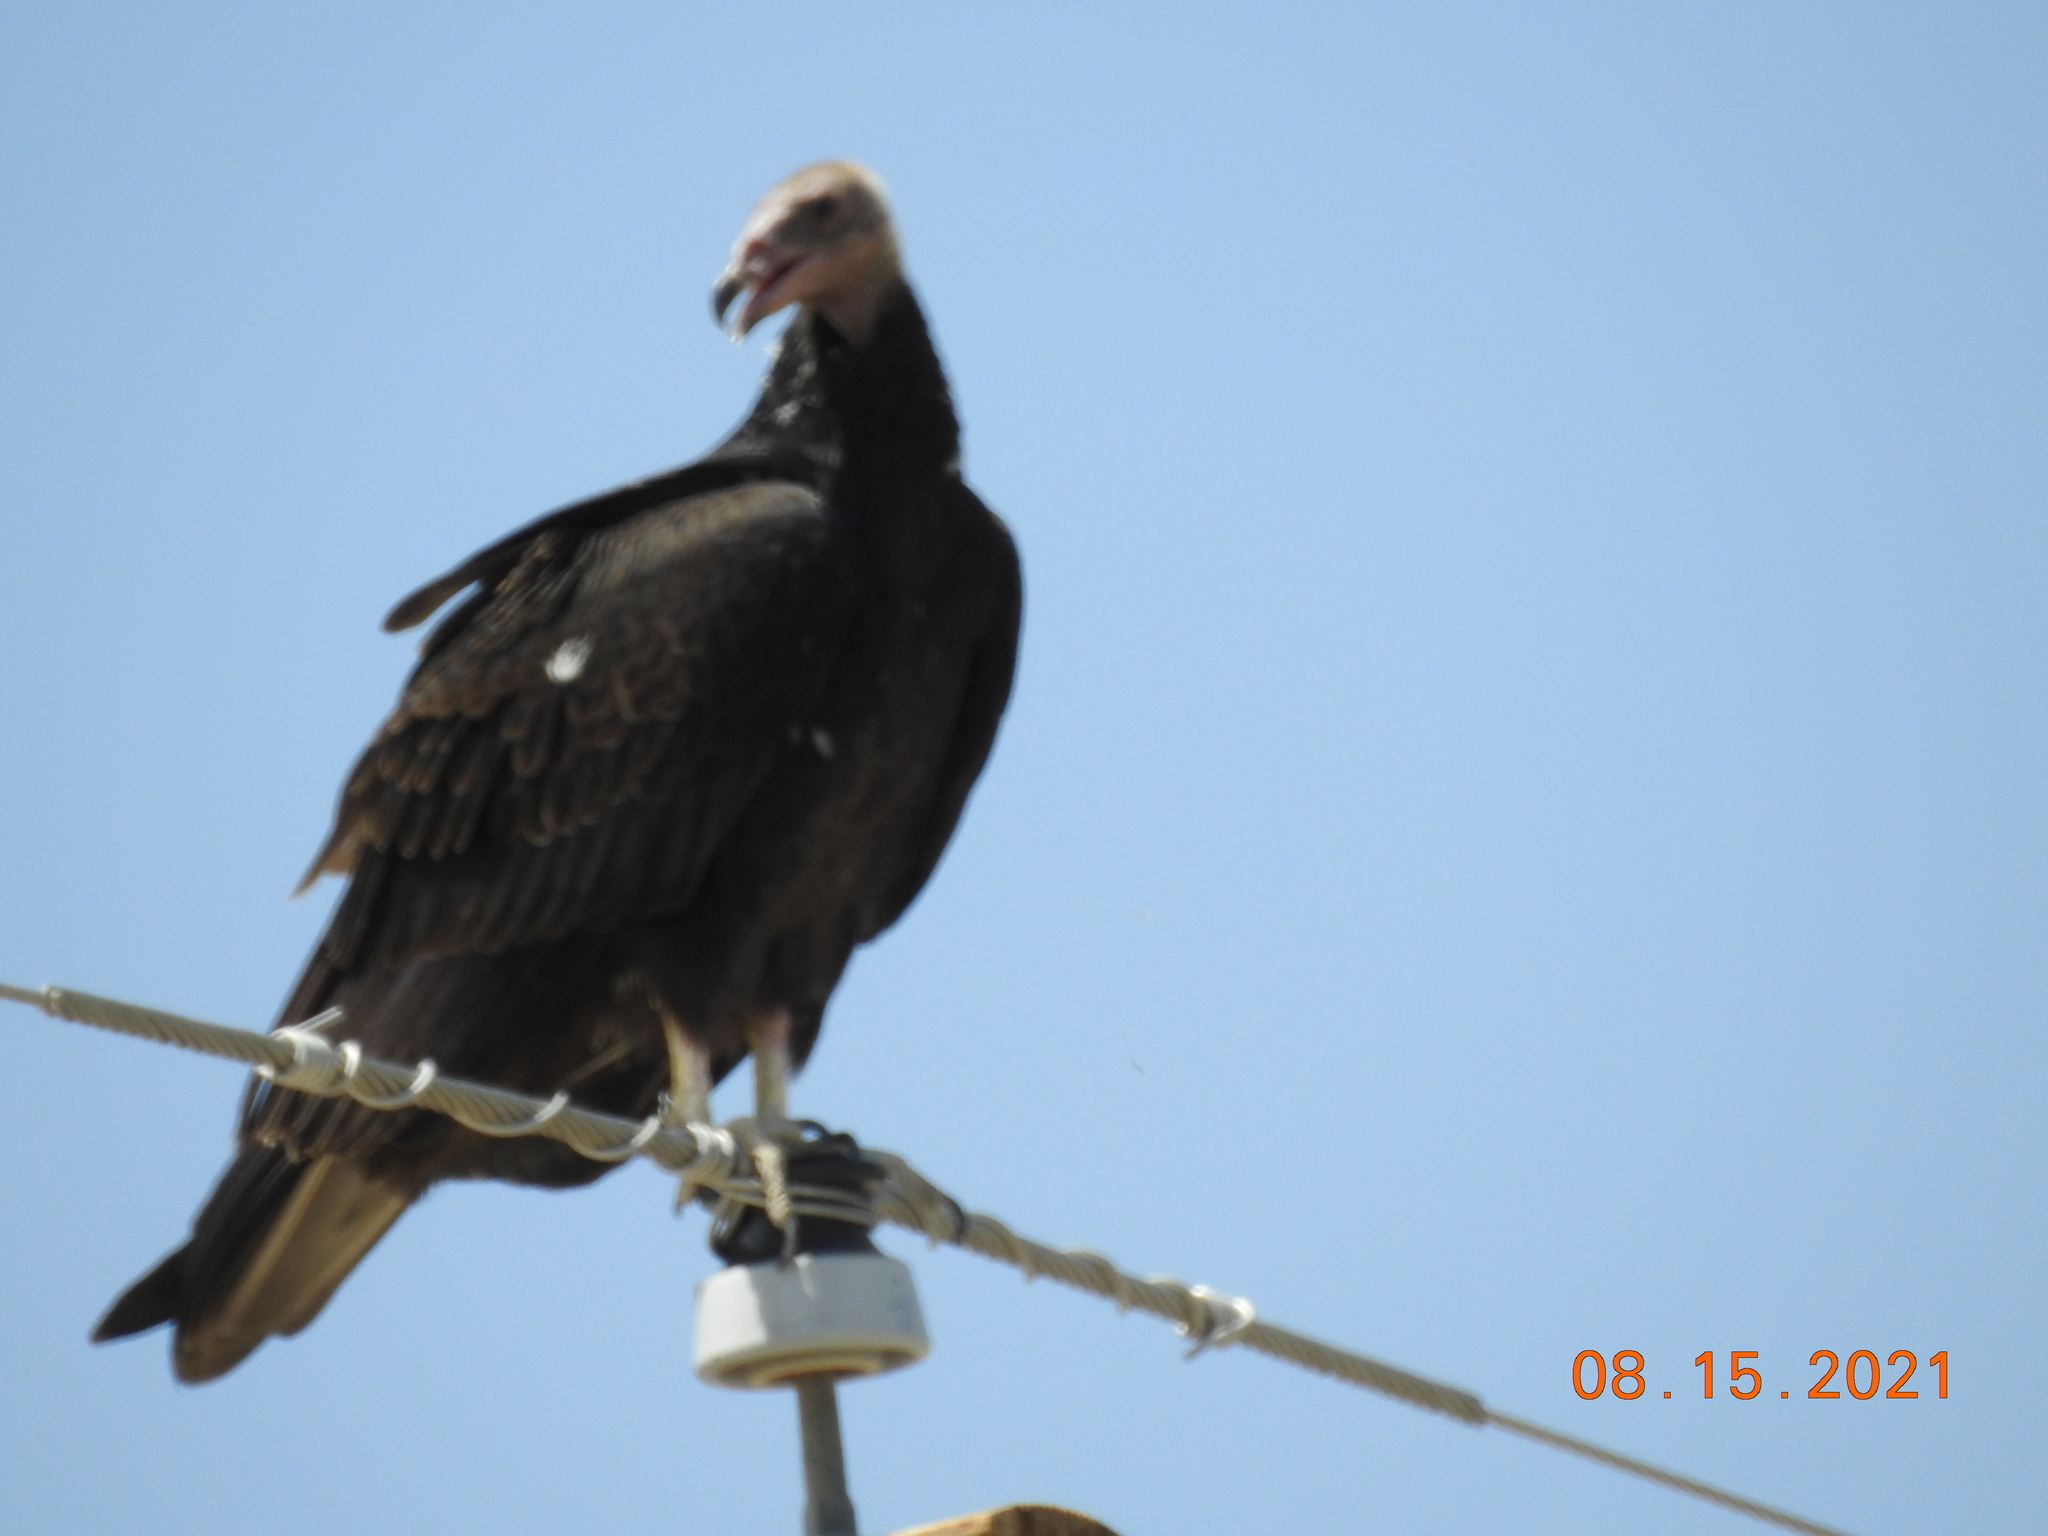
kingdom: Animalia
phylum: Chordata
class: Aves
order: Accipitriformes
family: Cathartidae
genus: Cathartes
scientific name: Cathartes aura
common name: Turkey vulture
